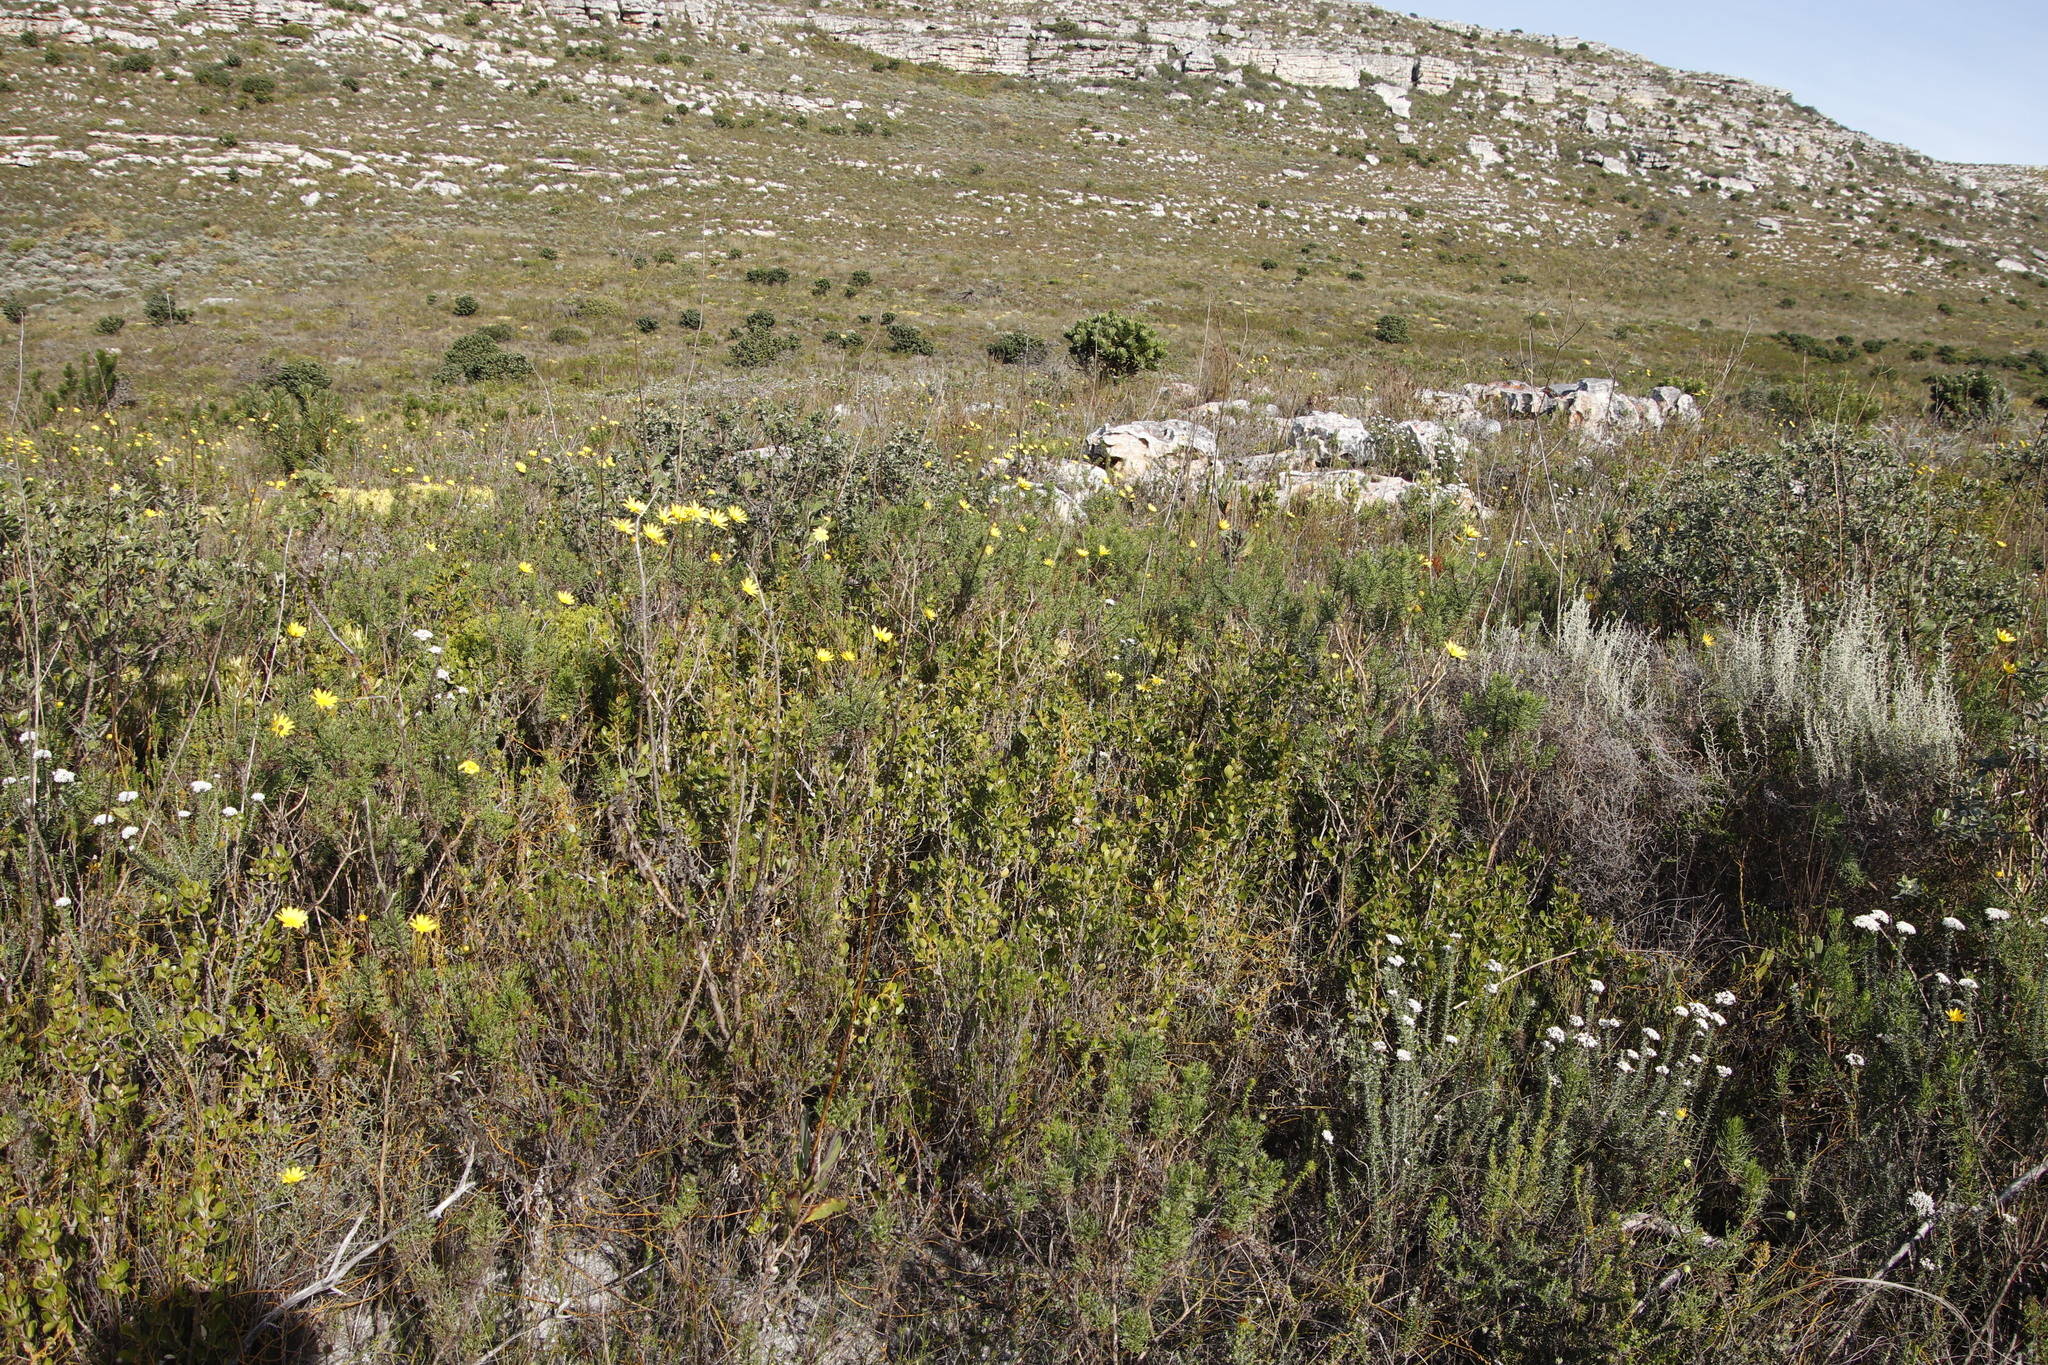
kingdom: Plantae
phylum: Tracheophyta
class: Magnoliopsida
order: Sapindales
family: Anacardiaceae
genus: Searsia
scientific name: Searsia lucida
